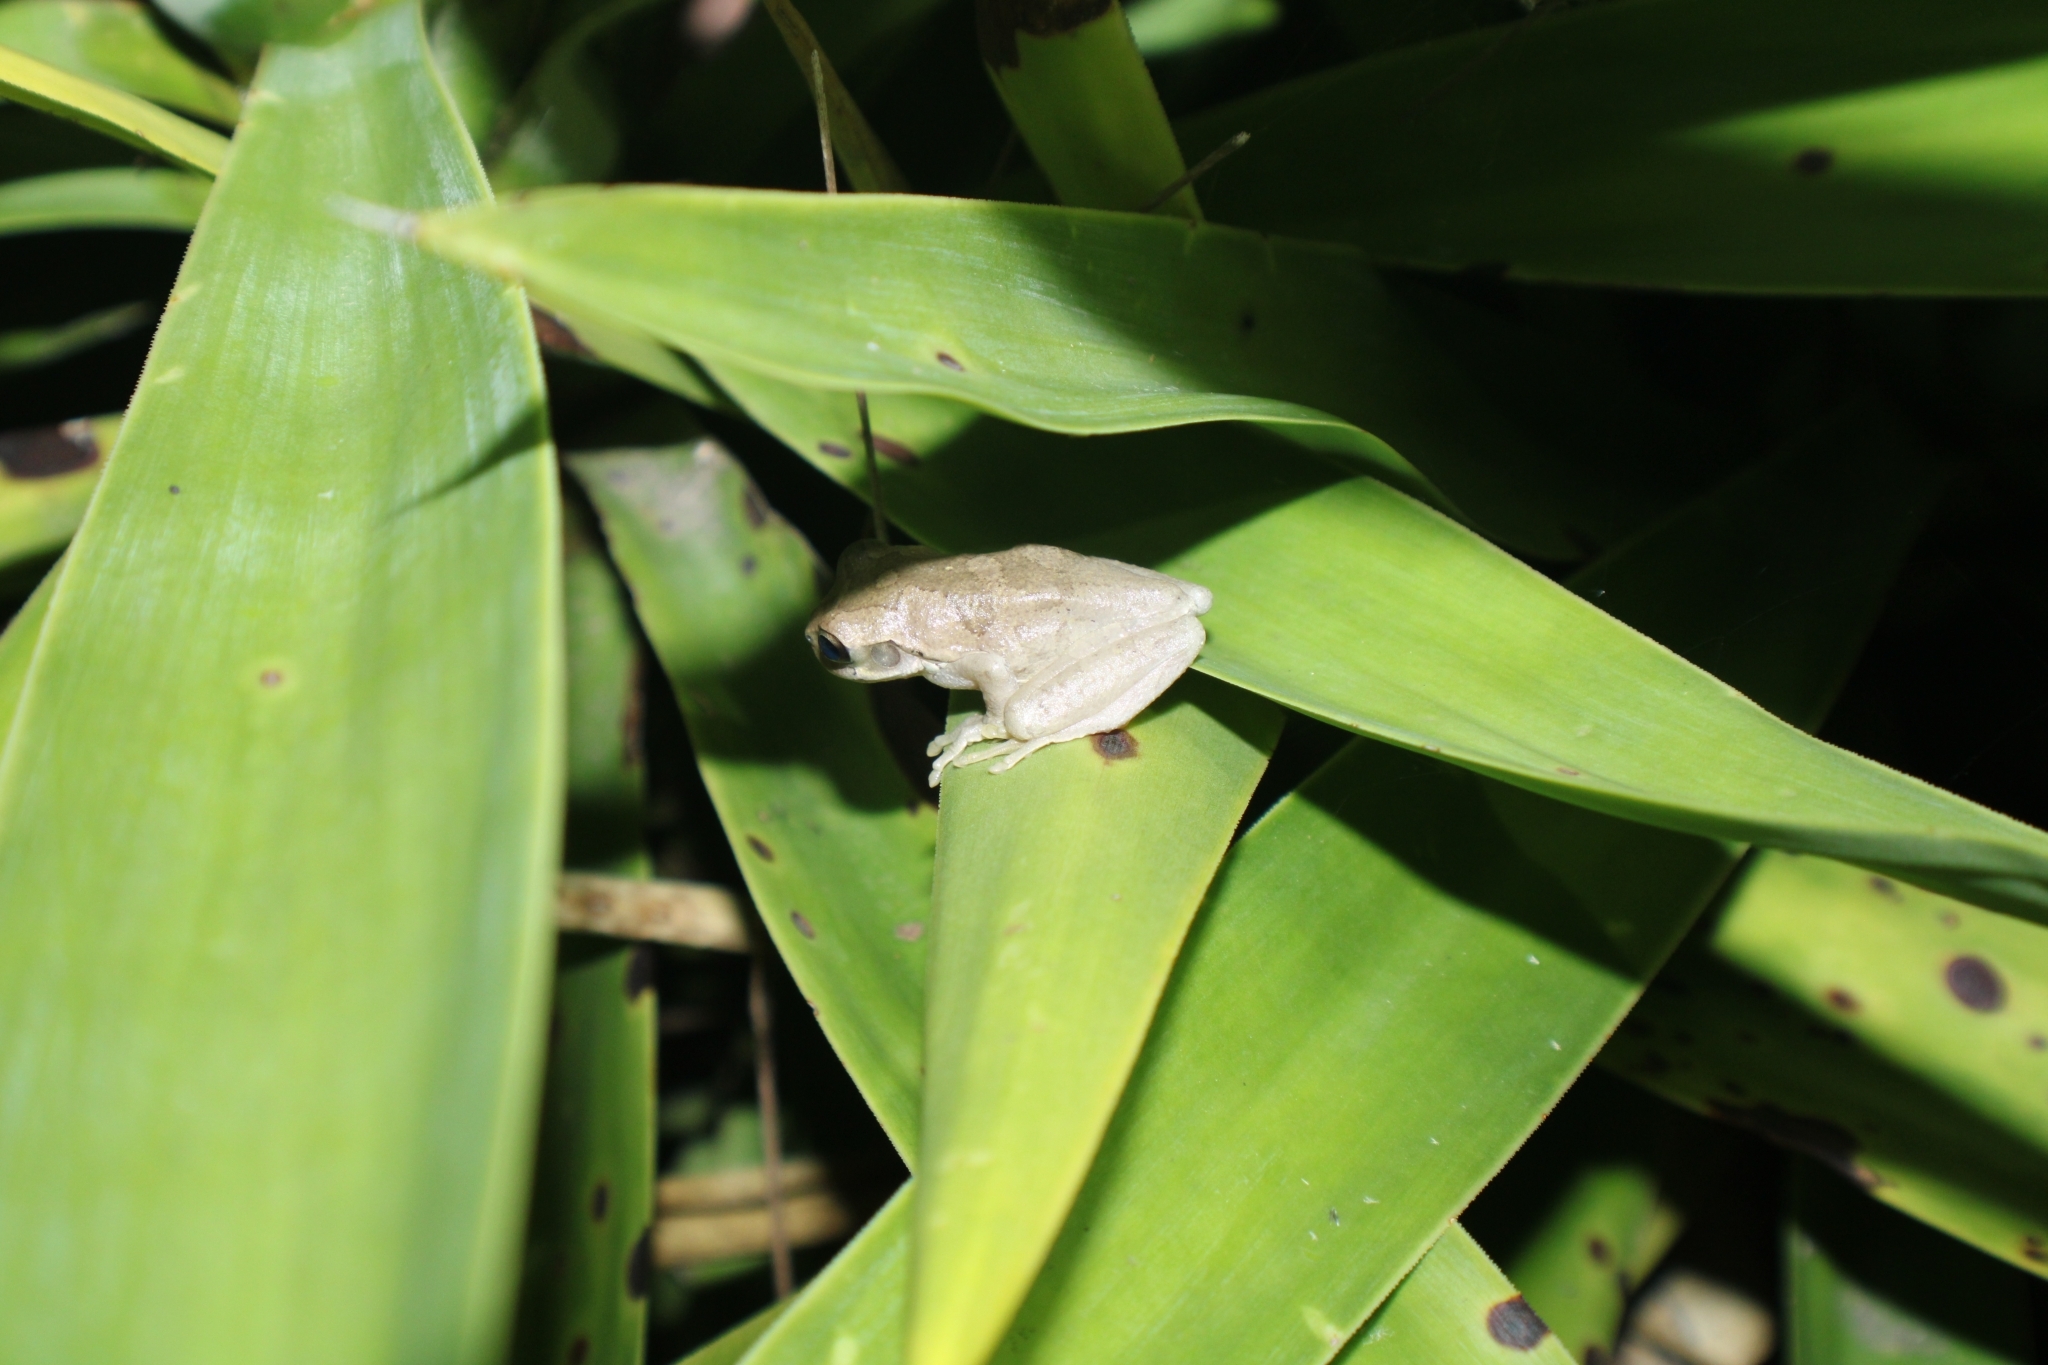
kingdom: Animalia
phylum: Chordata
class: Amphibia
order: Anura
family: Hylidae
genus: Smilisca
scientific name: Smilisca baudinii
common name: Mexican smilisca
